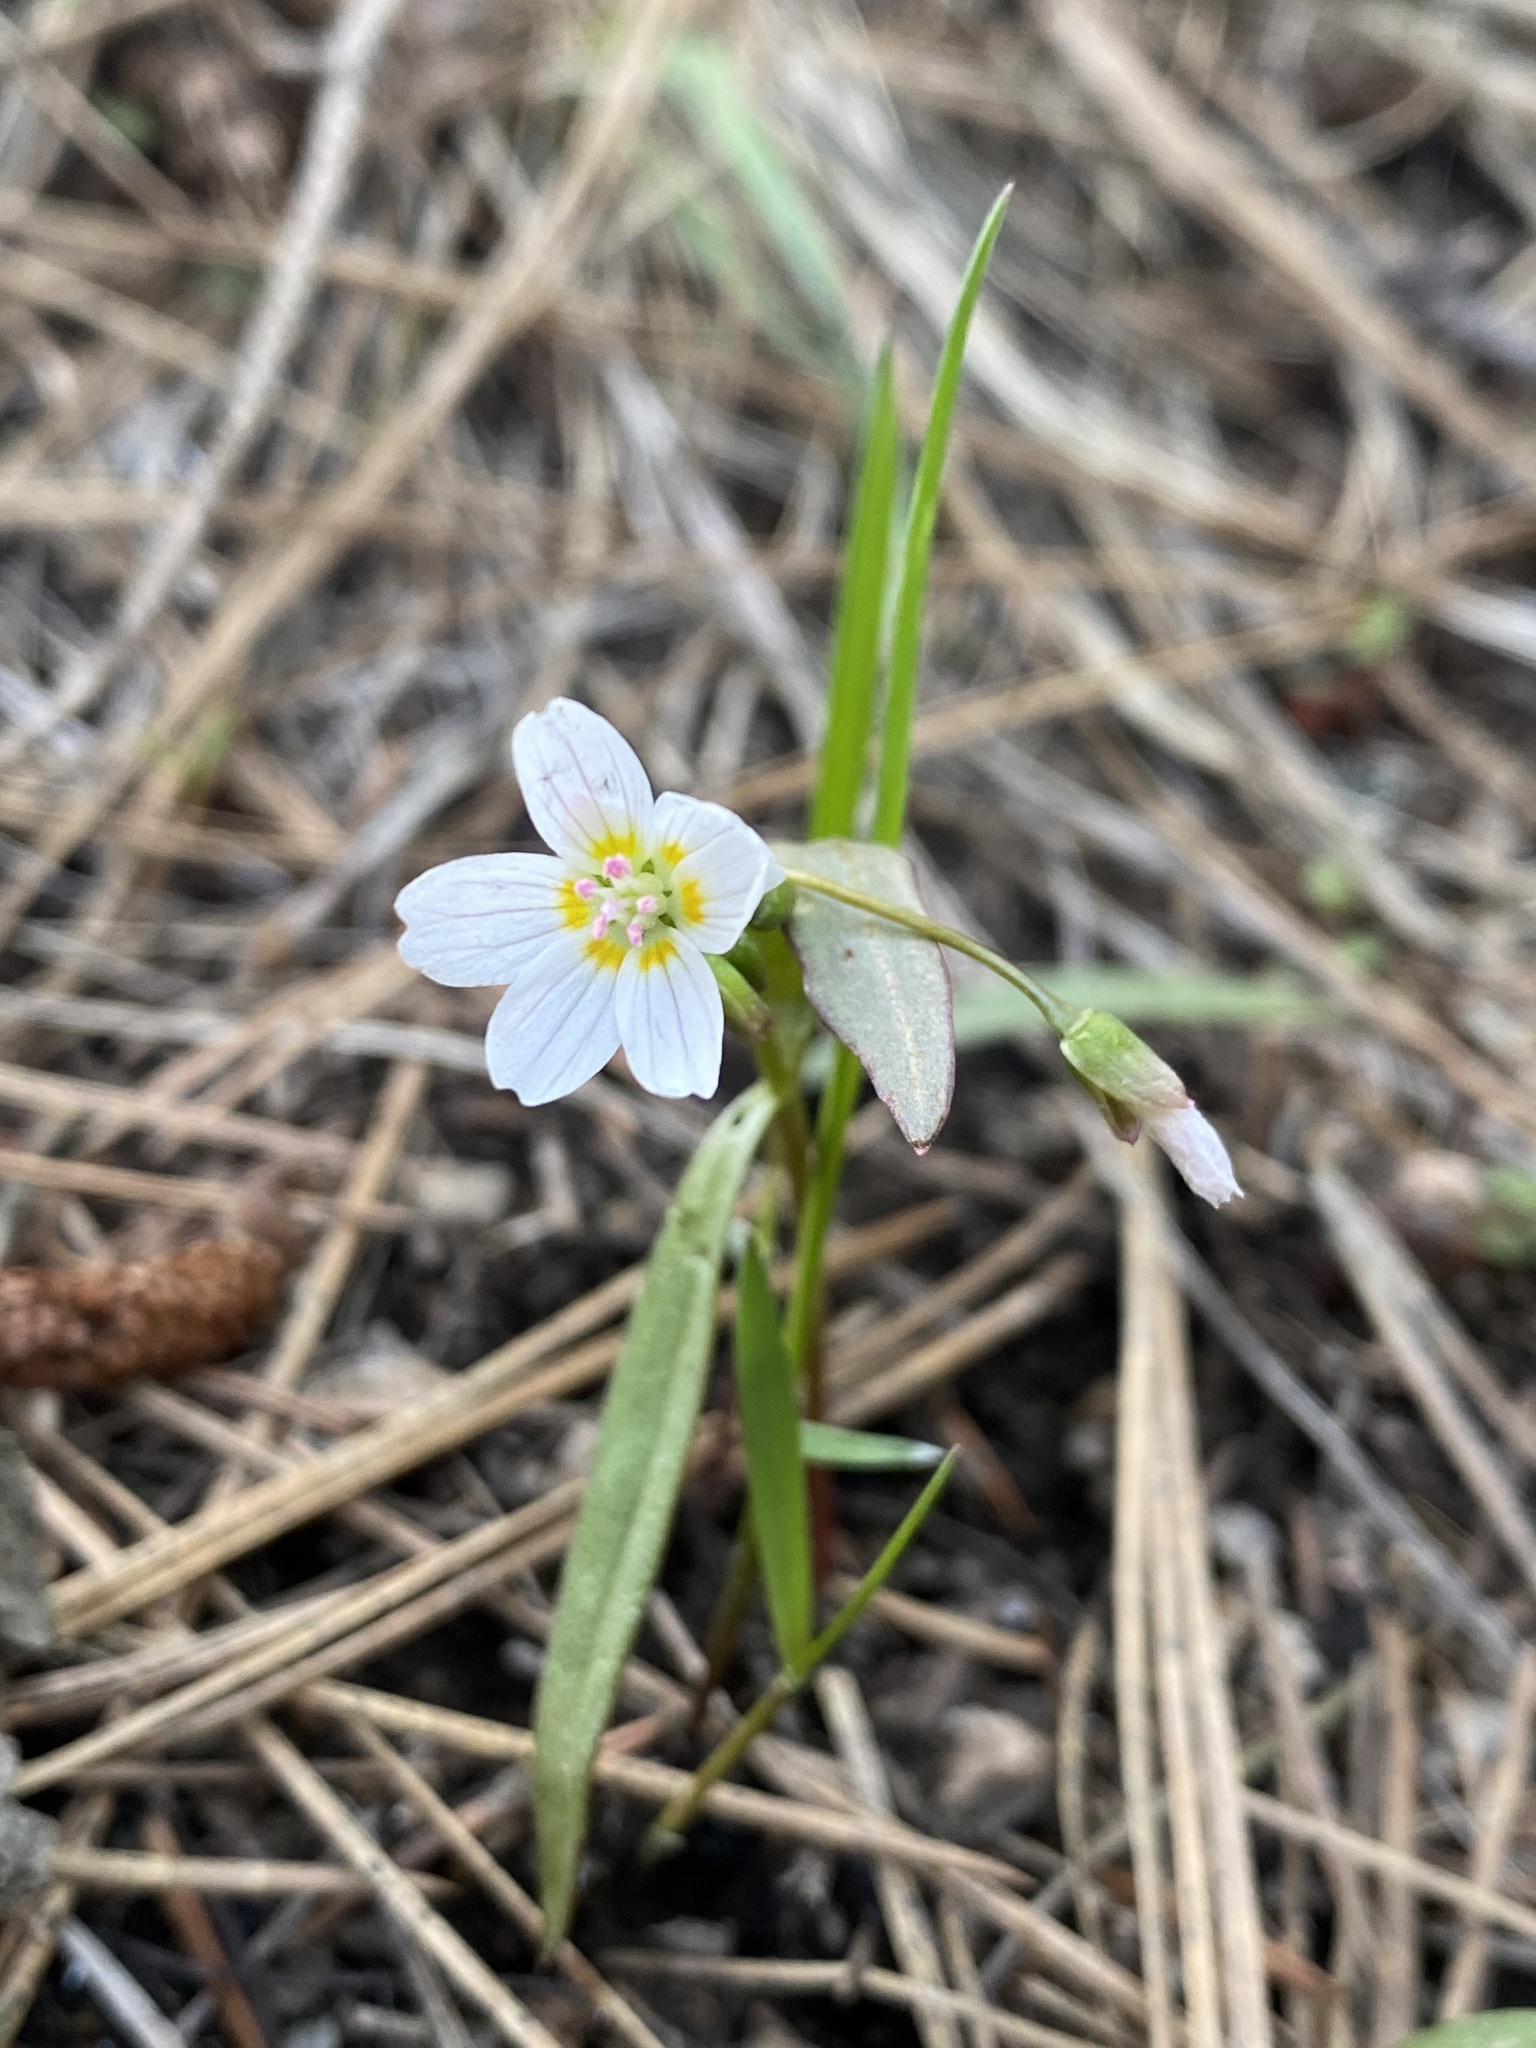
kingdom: Plantae
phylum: Tracheophyta
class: Magnoliopsida
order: Caryophyllales
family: Montiaceae
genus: Claytonia
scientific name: Claytonia lanceolata
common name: Western spring-beauty
